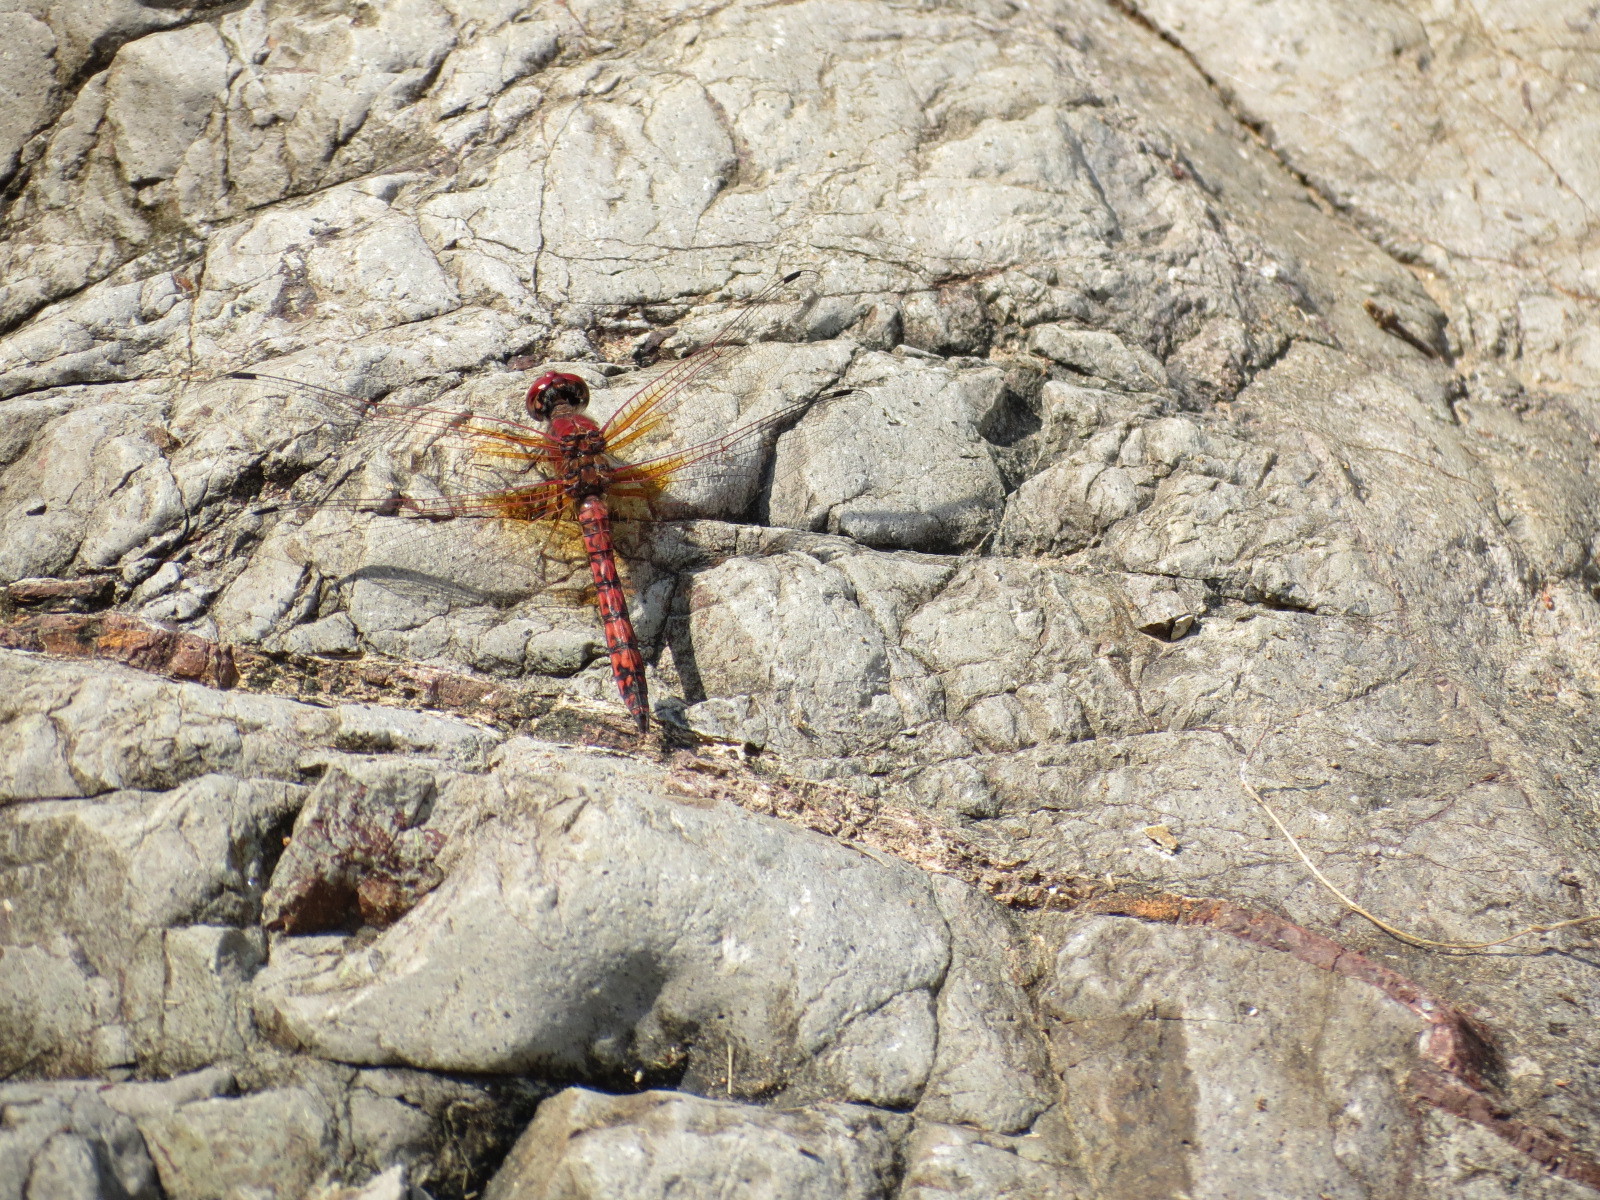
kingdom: Animalia
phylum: Arthropoda
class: Insecta
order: Odonata
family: Libellulidae
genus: Paltothemis
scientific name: Paltothemis lineatipes
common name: Red rock skimmer
